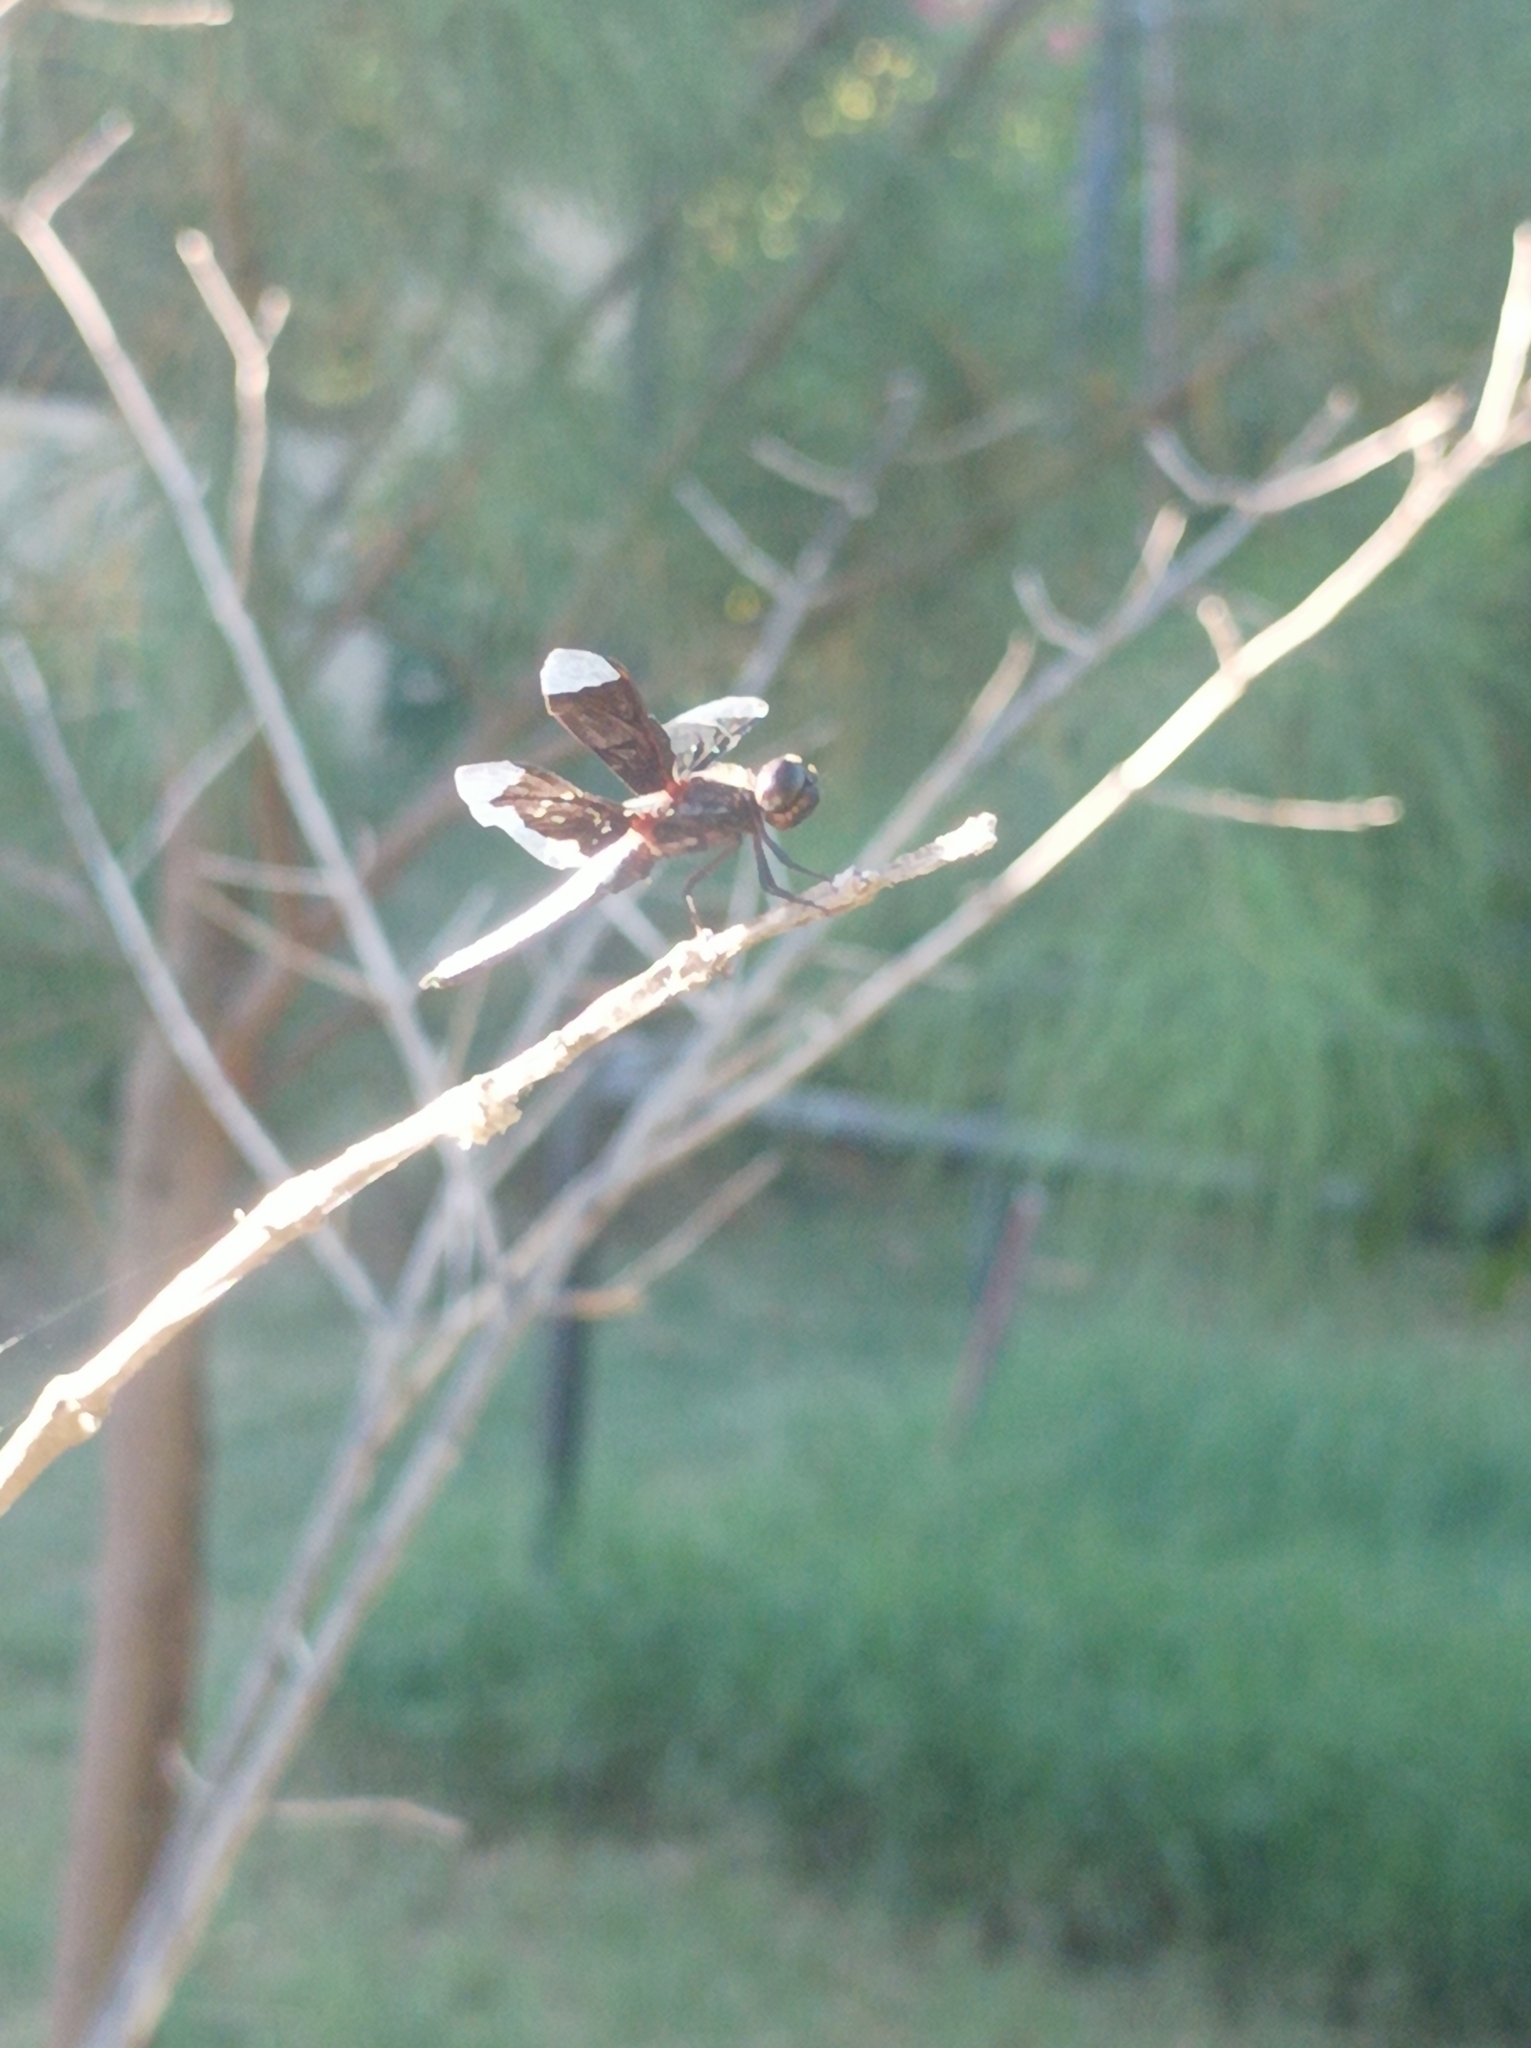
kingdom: Animalia
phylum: Arthropoda
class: Insecta
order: Odonata
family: Libellulidae
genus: Palpopleura
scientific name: Palpopleura lucia
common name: Lucia widow
